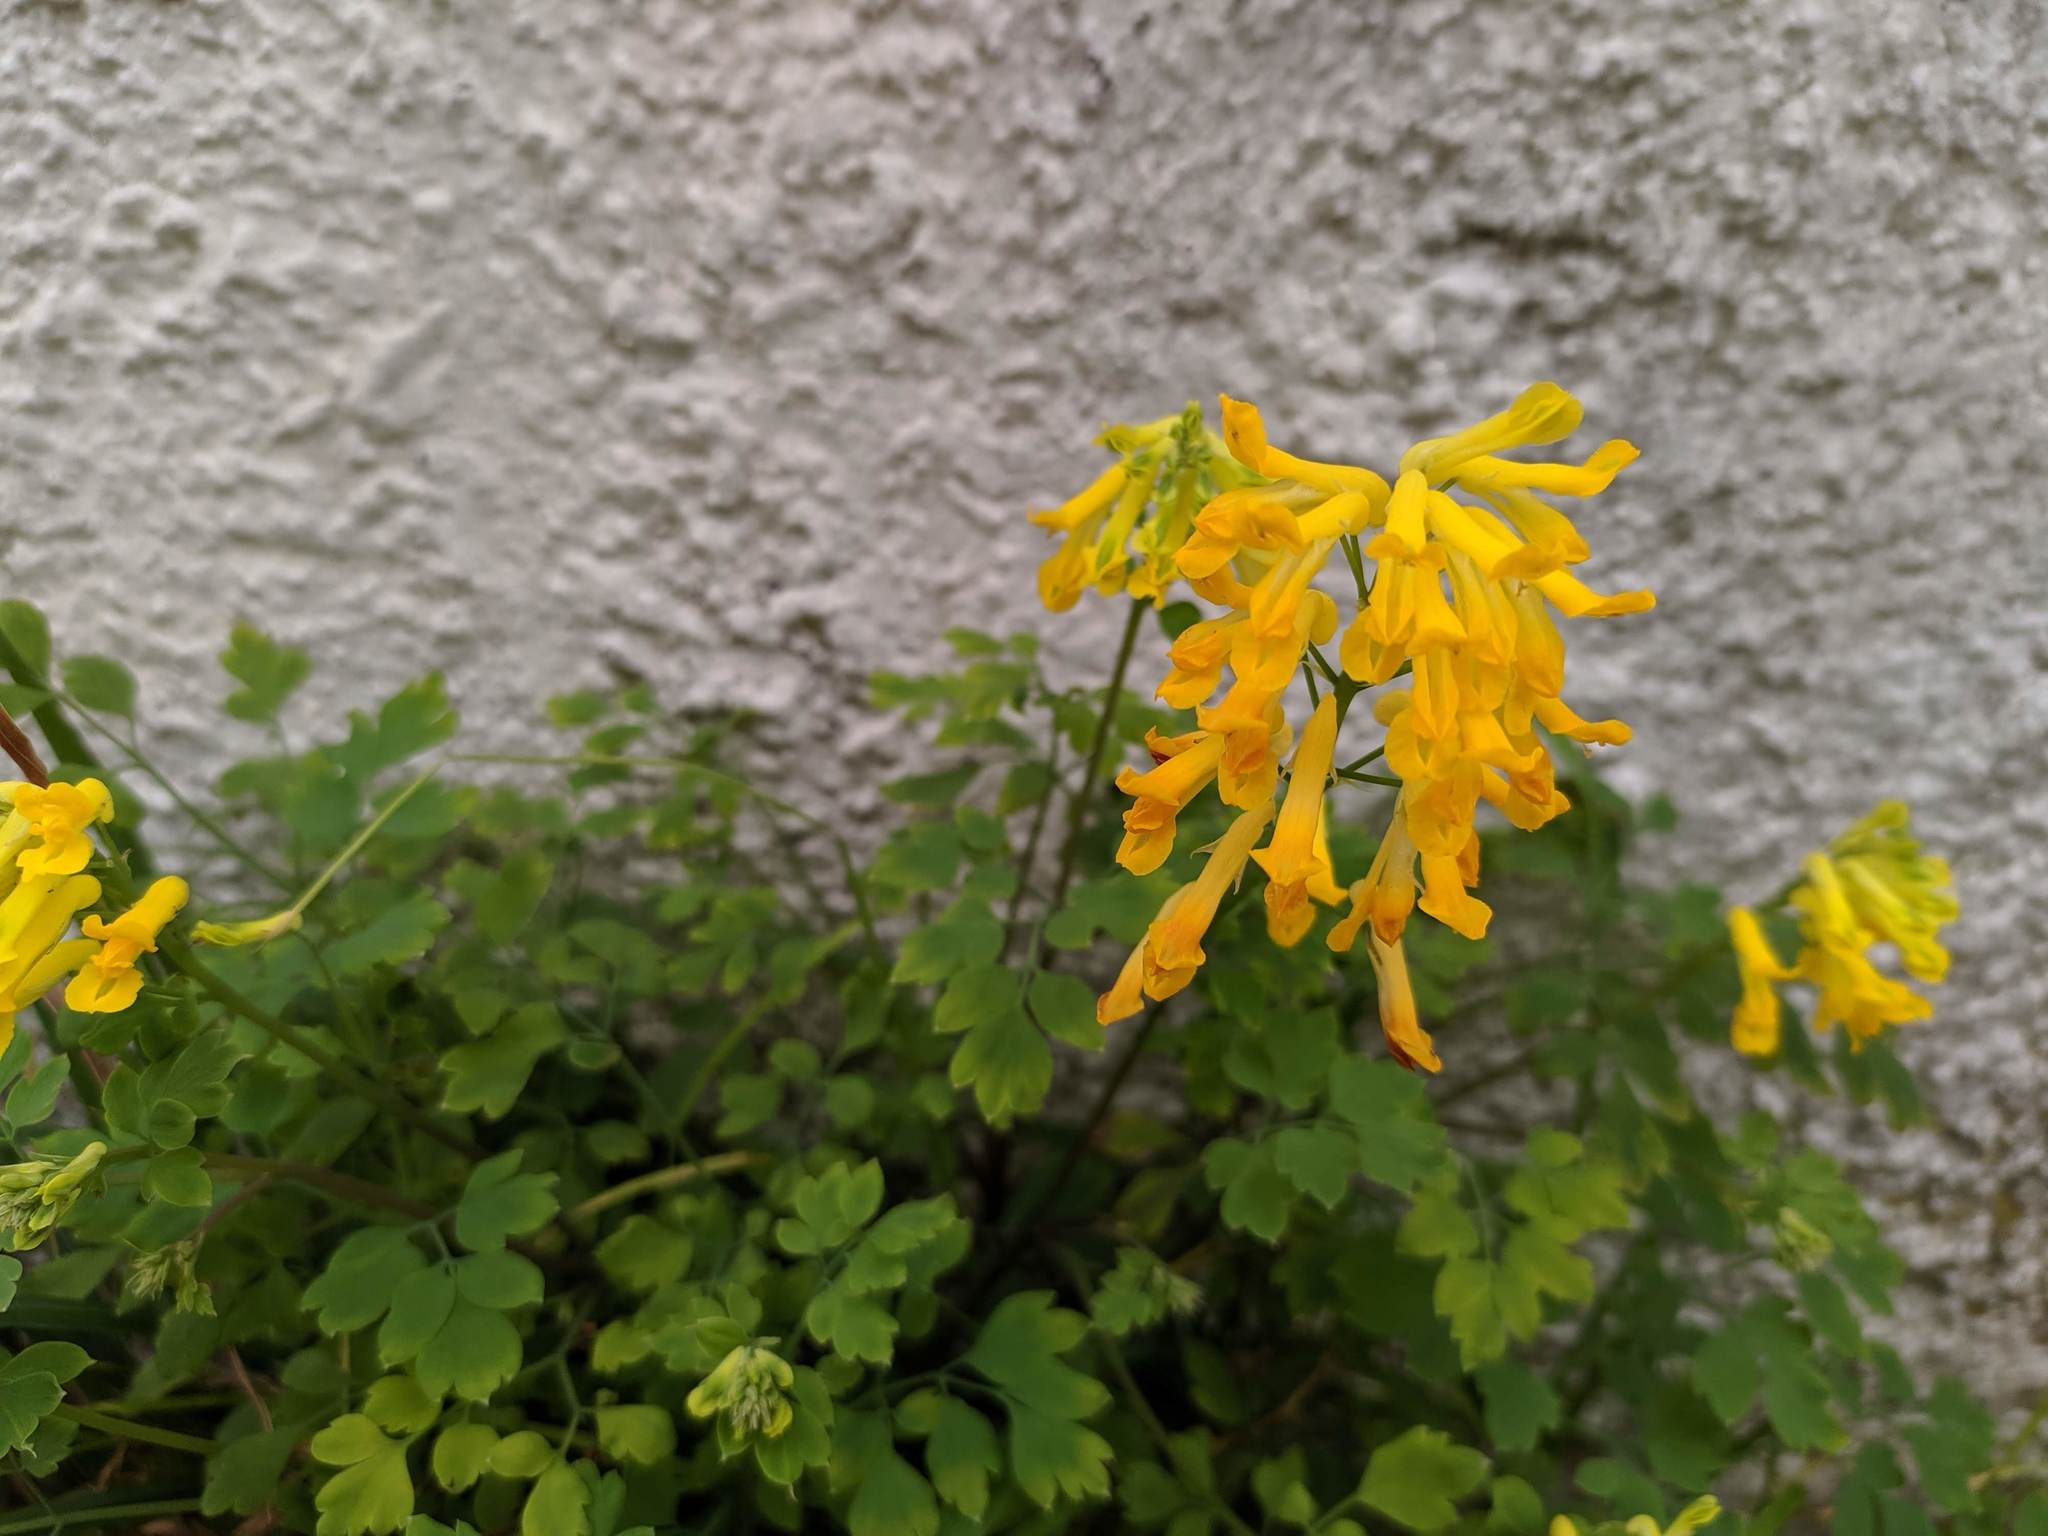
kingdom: Plantae
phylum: Tracheophyta
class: Magnoliopsida
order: Ranunculales
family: Papaveraceae
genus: Pseudofumaria
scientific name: Pseudofumaria lutea
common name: Yellow corydalis
